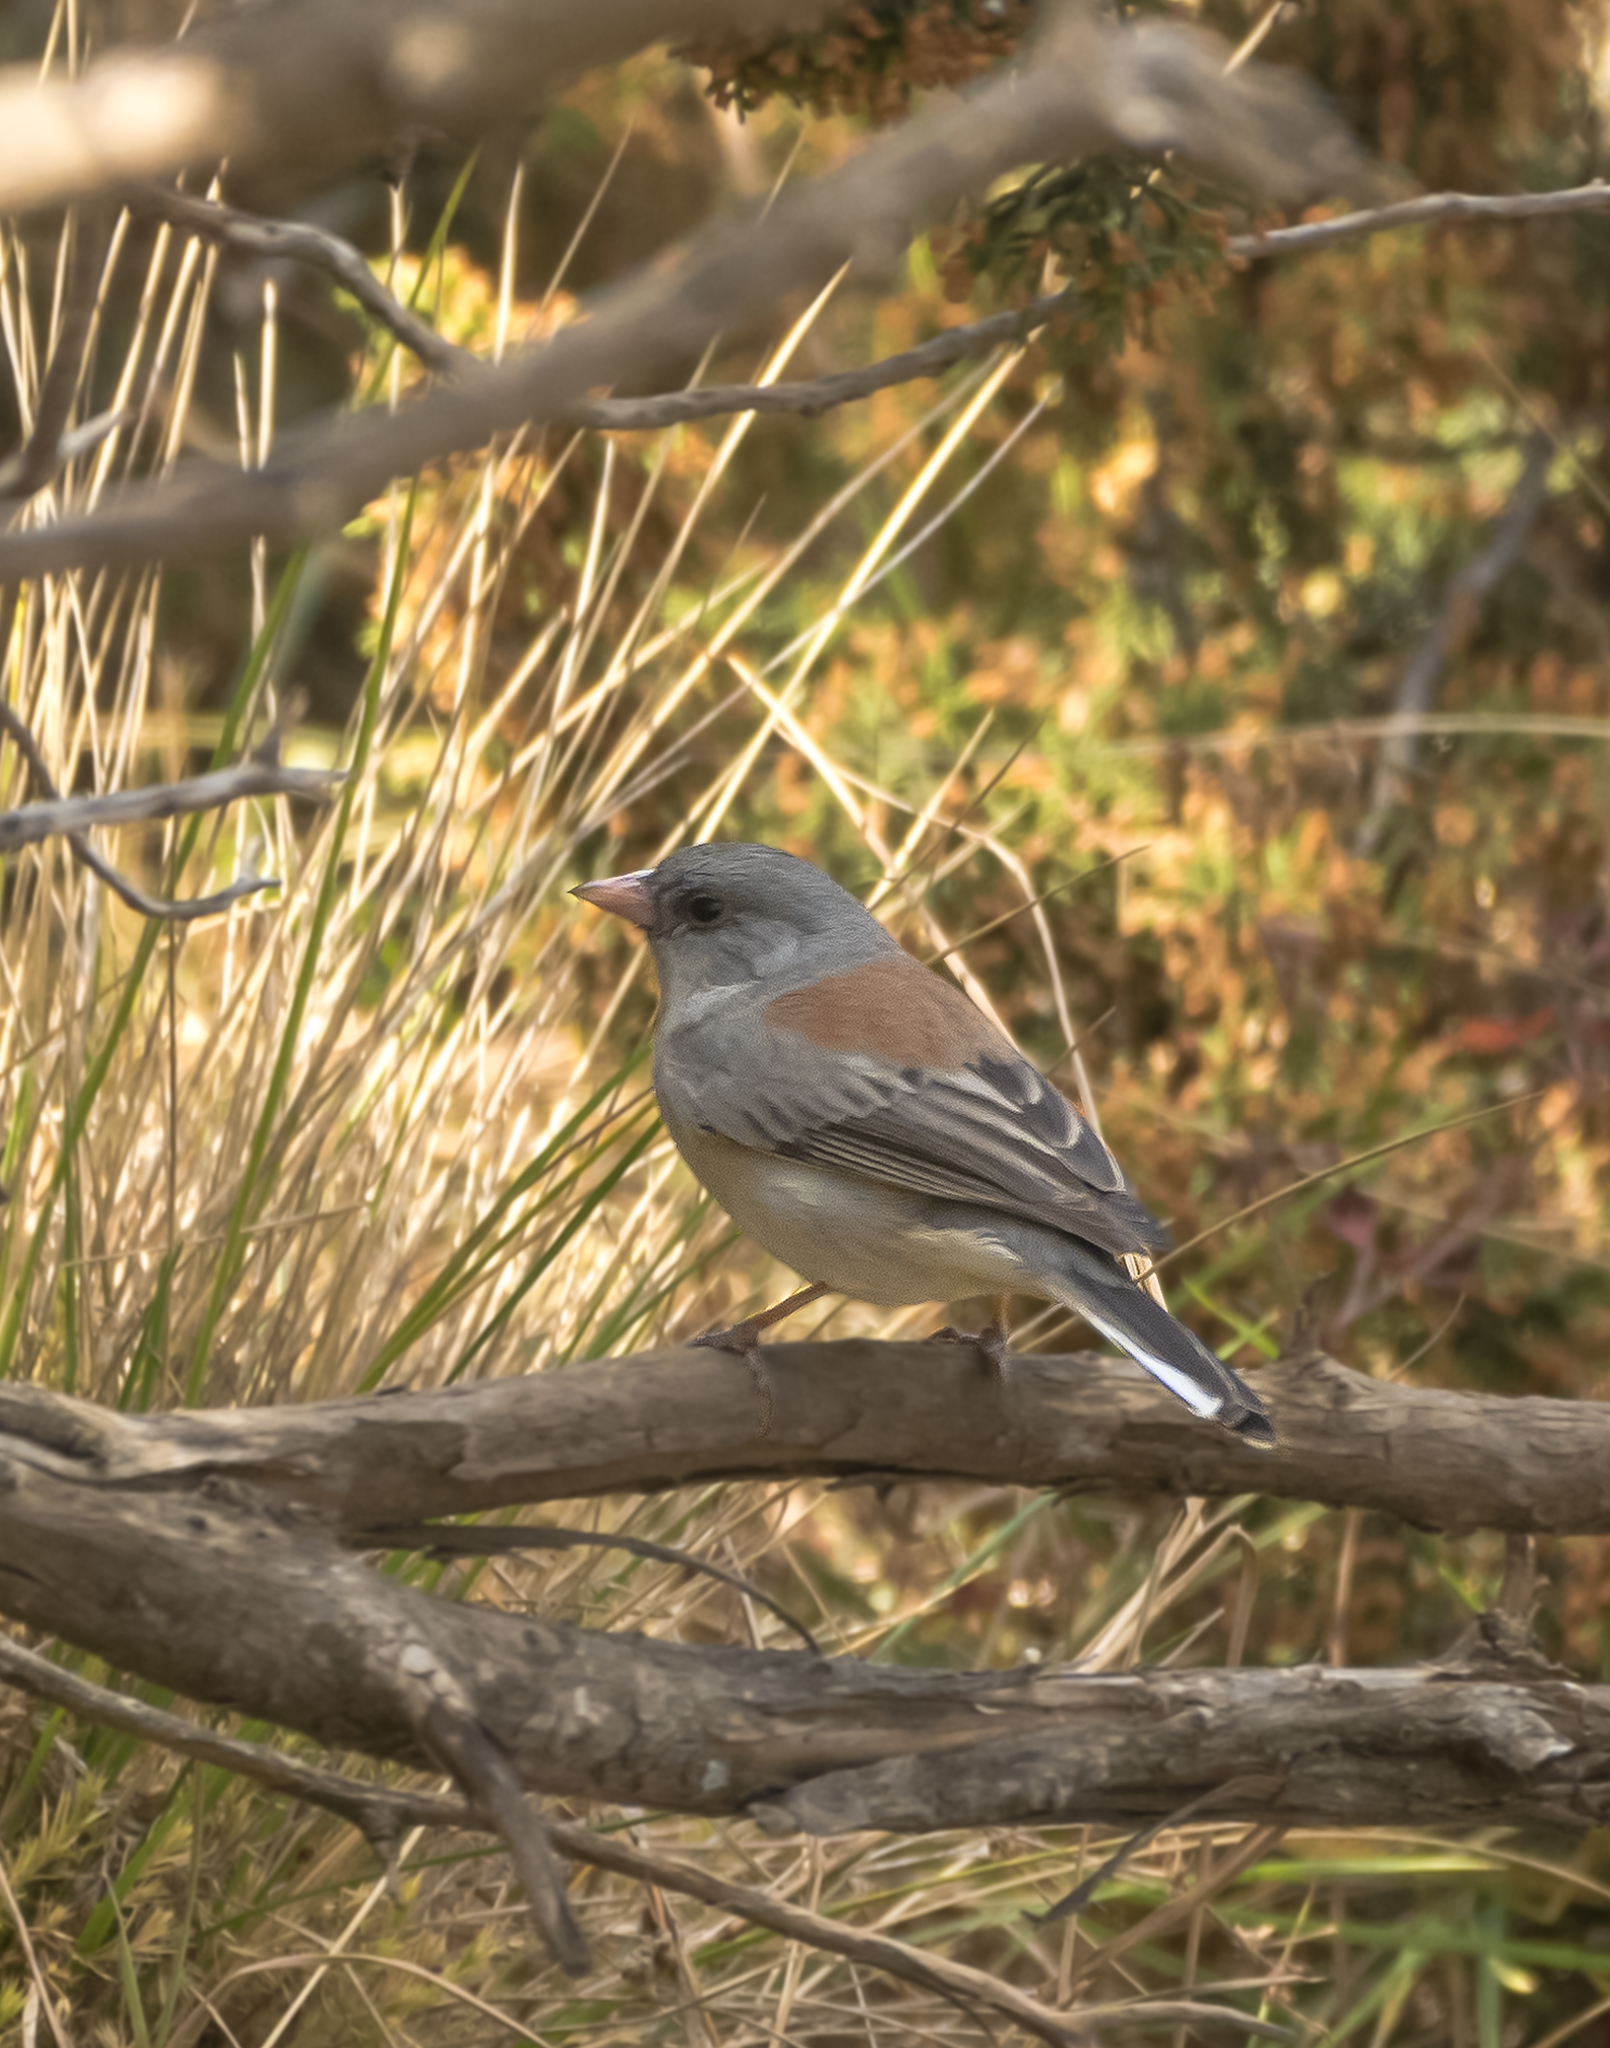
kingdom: Animalia
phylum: Chordata
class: Aves
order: Passeriformes
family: Passerellidae
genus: Junco
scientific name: Junco hyemalis
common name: Dark-eyed junco
